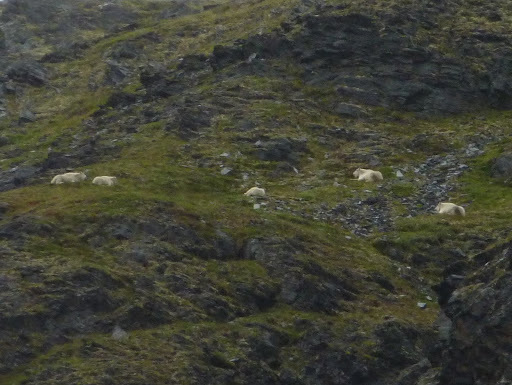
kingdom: Animalia
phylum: Chordata
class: Mammalia
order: Artiodactyla
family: Bovidae
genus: Oreamnos
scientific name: Oreamnos americanus
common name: Mountain goat
